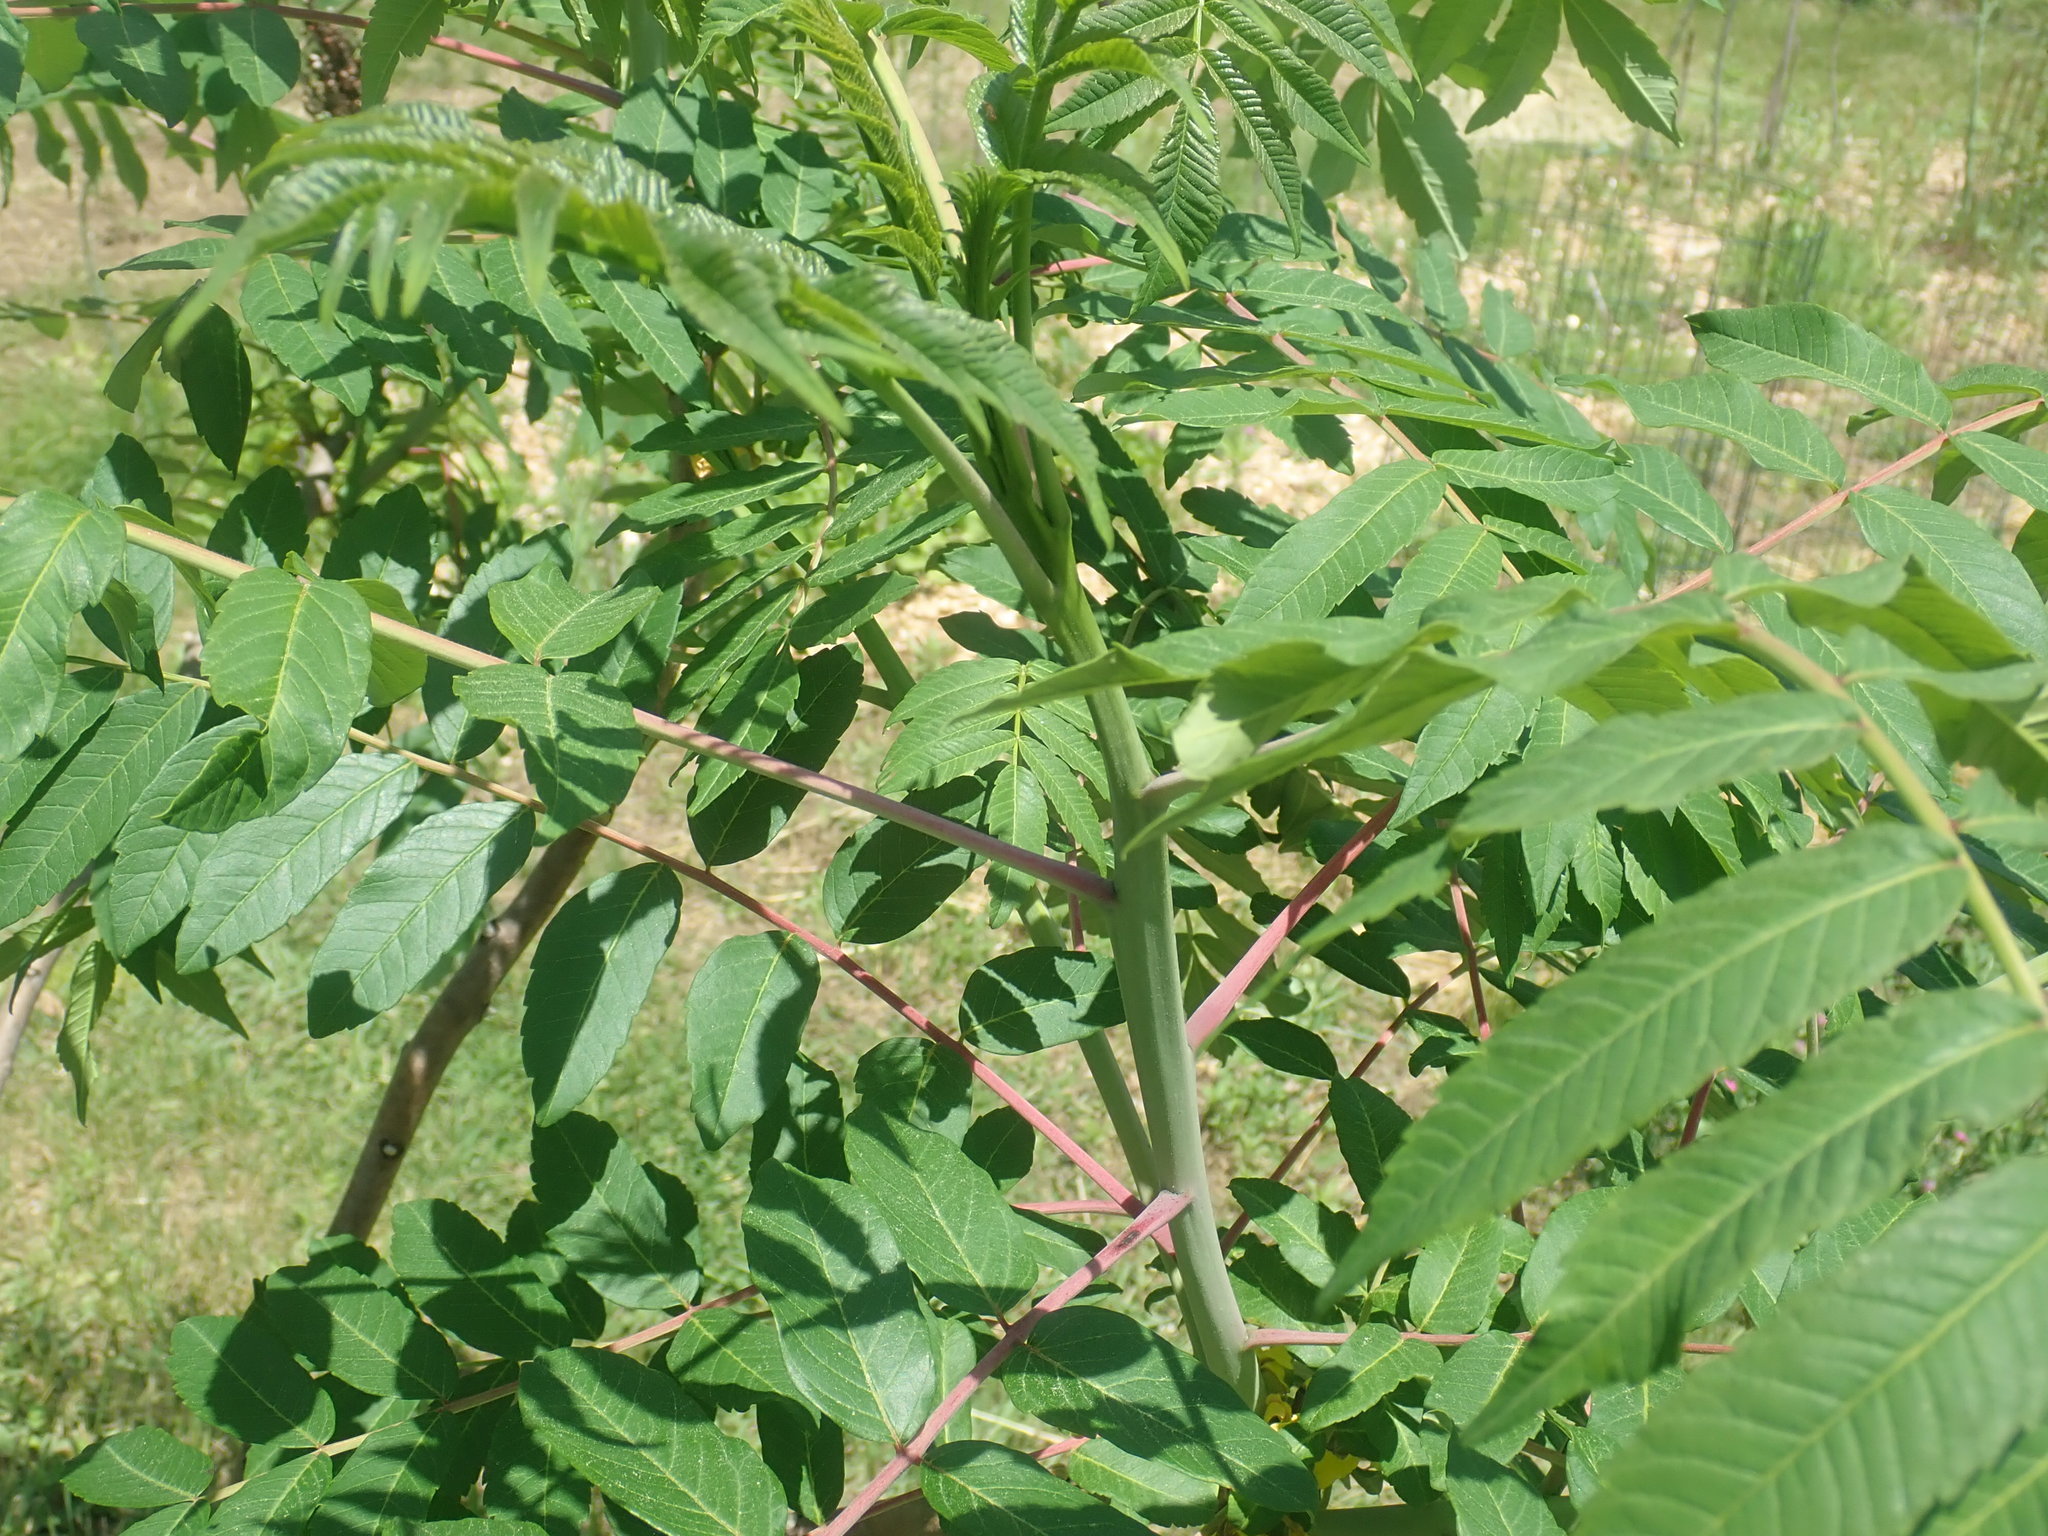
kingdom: Plantae
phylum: Tracheophyta
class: Magnoliopsida
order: Sapindales
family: Anacardiaceae
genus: Rhus
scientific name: Rhus glabra
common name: Scarlet sumac
